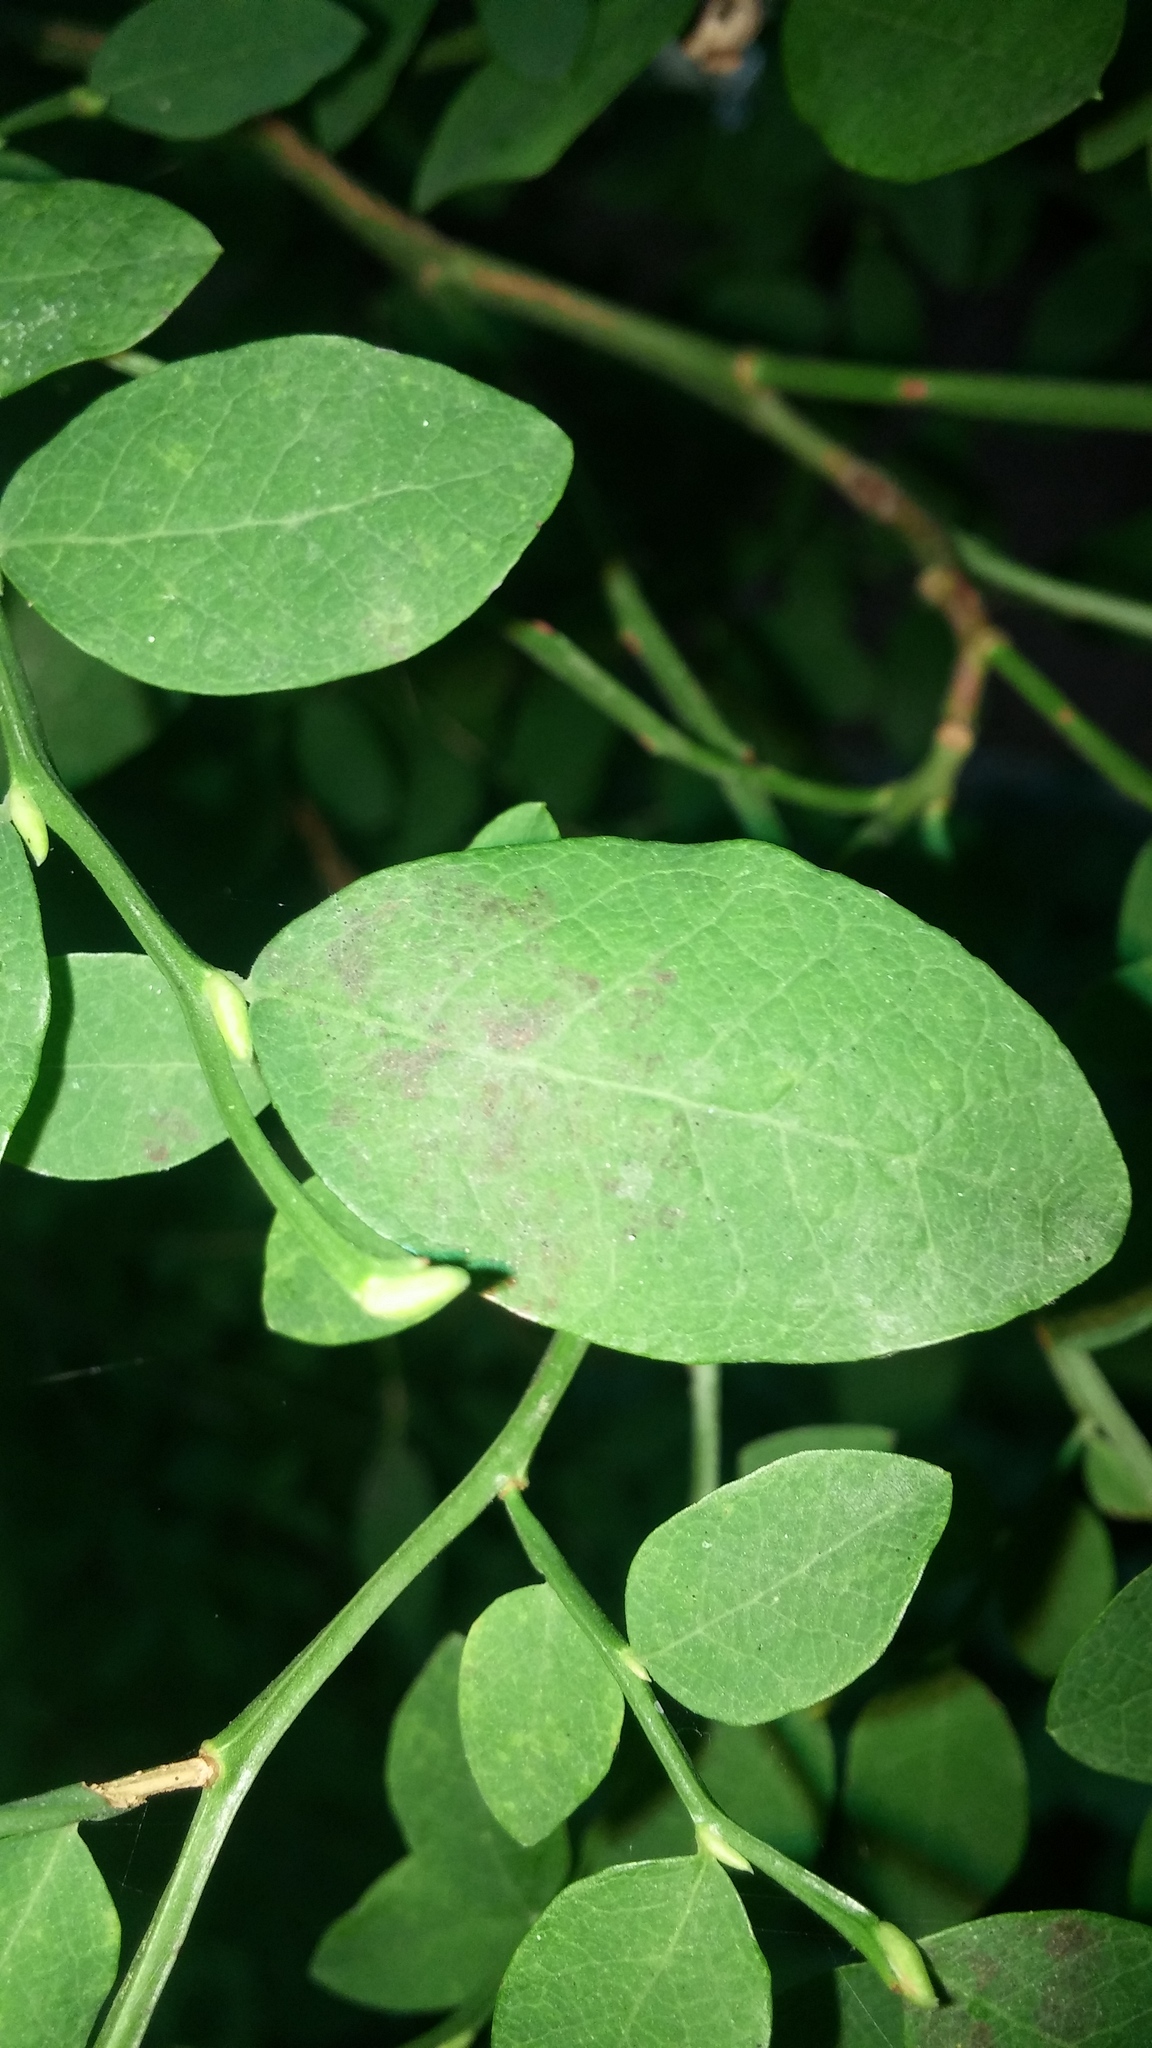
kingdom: Plantae
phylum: Tracheophyta
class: Magnoliopsida
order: Ericales
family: Ericaceae
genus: Vaccinium
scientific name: Vaccinium parvifolium
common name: Red-huckleberry
